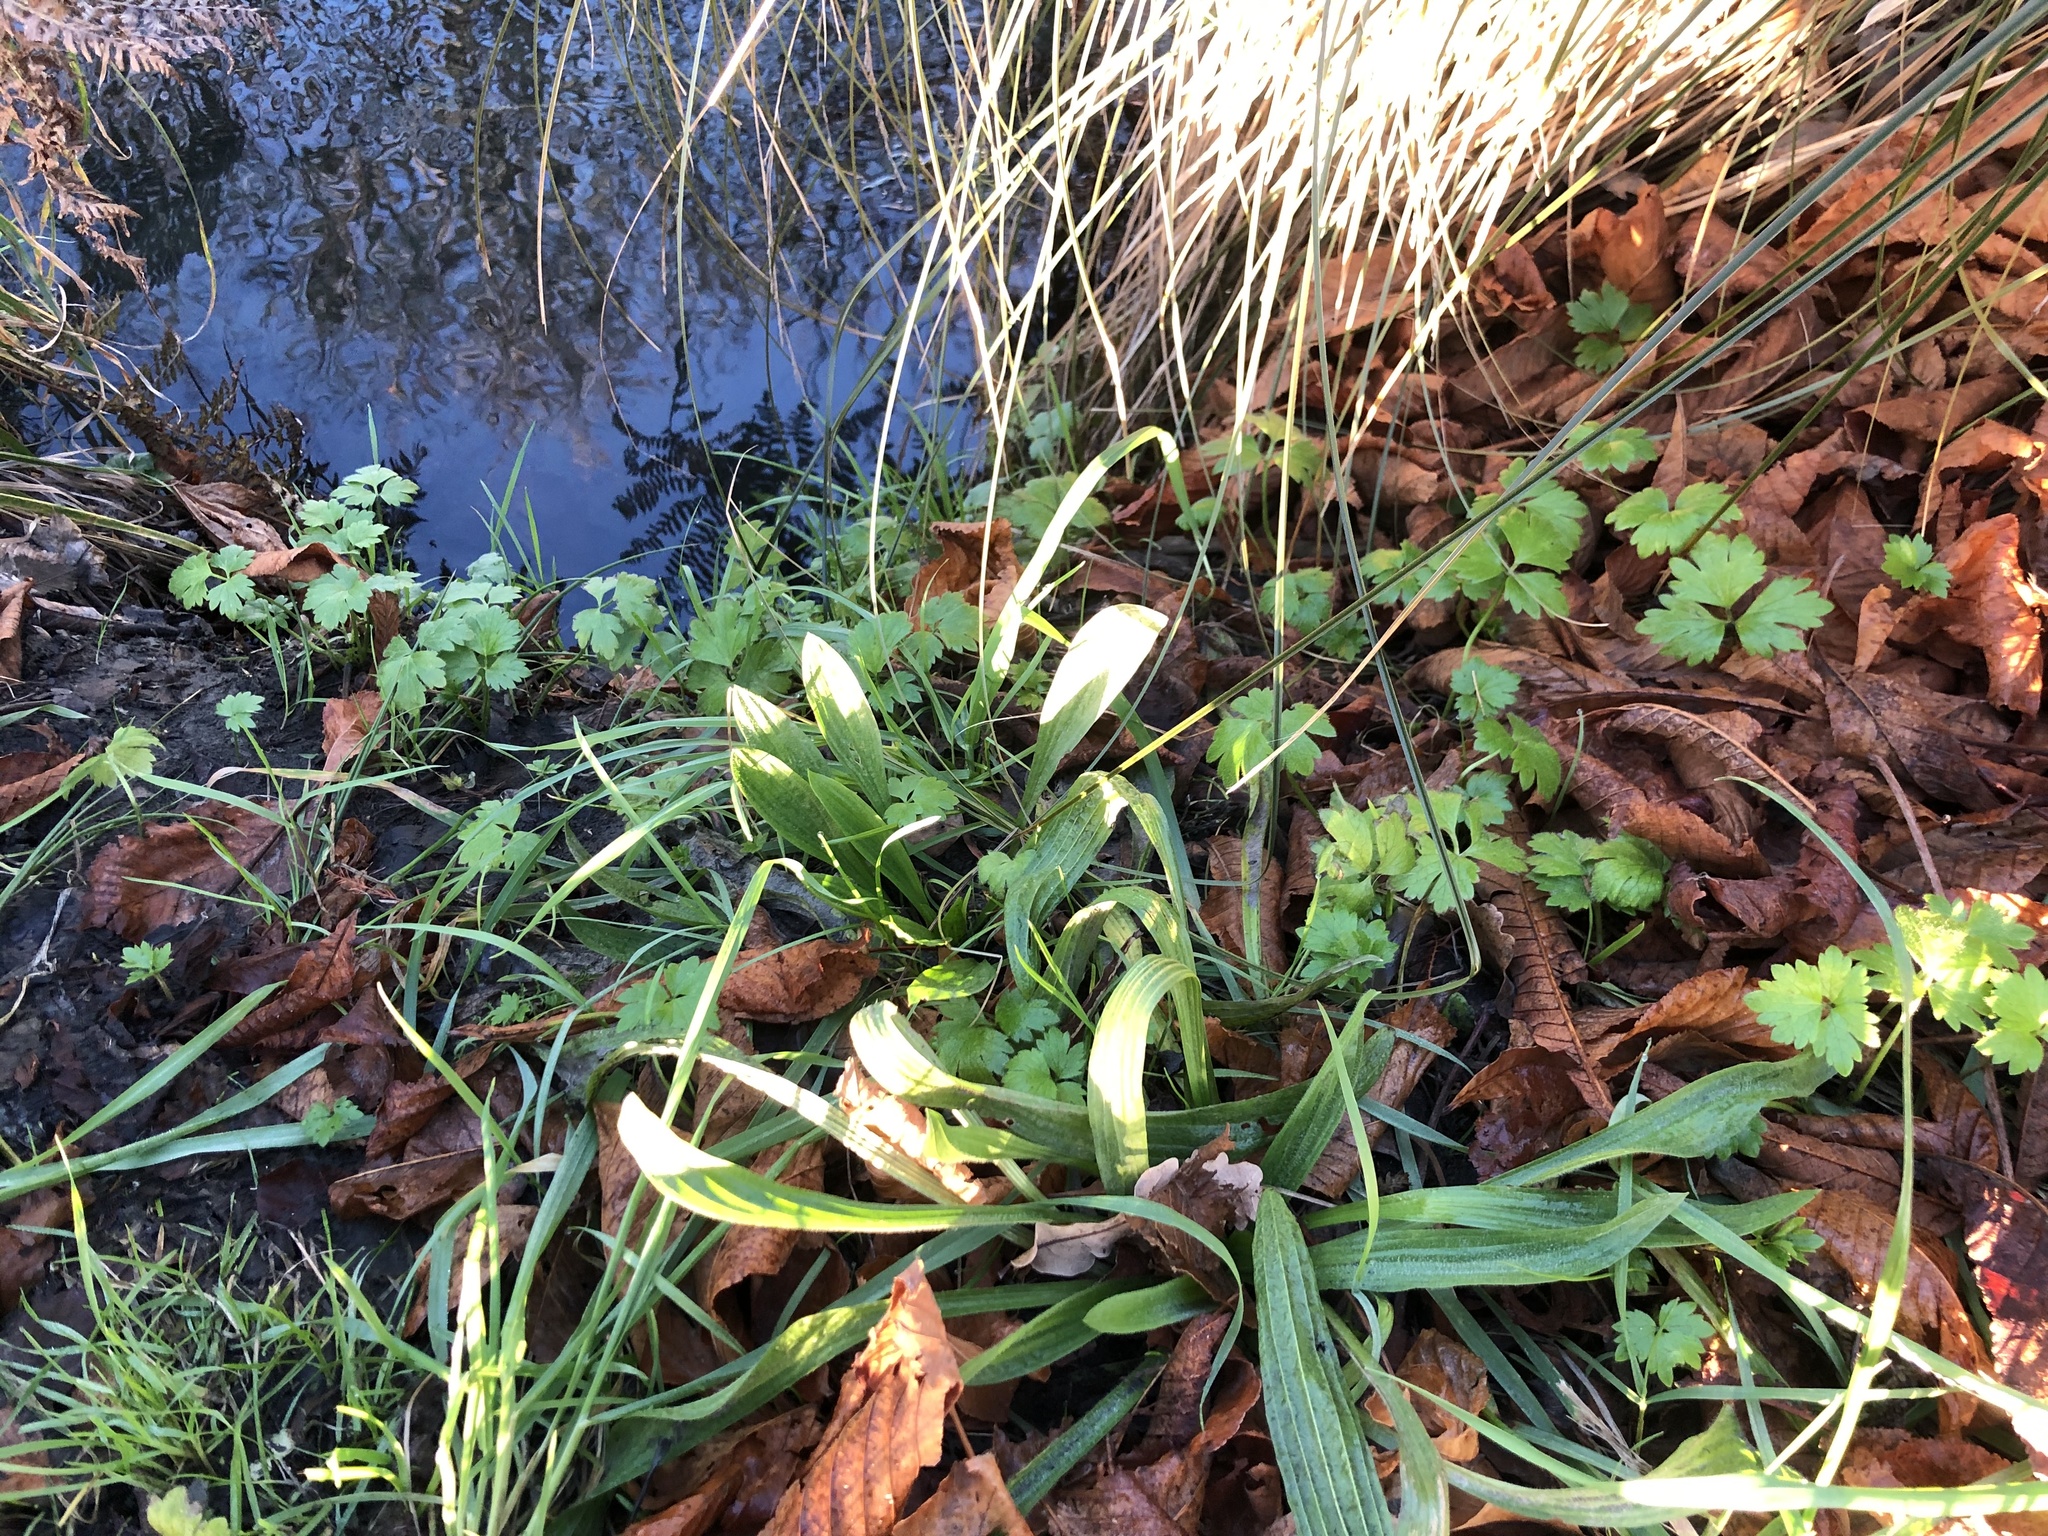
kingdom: Plantae
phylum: Tracheophyta
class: Magnoliopsida
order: Ranunculales
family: Ranunculaceae
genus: Ranunculus
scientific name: Ranunculus repens
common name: Creeping buttercup
